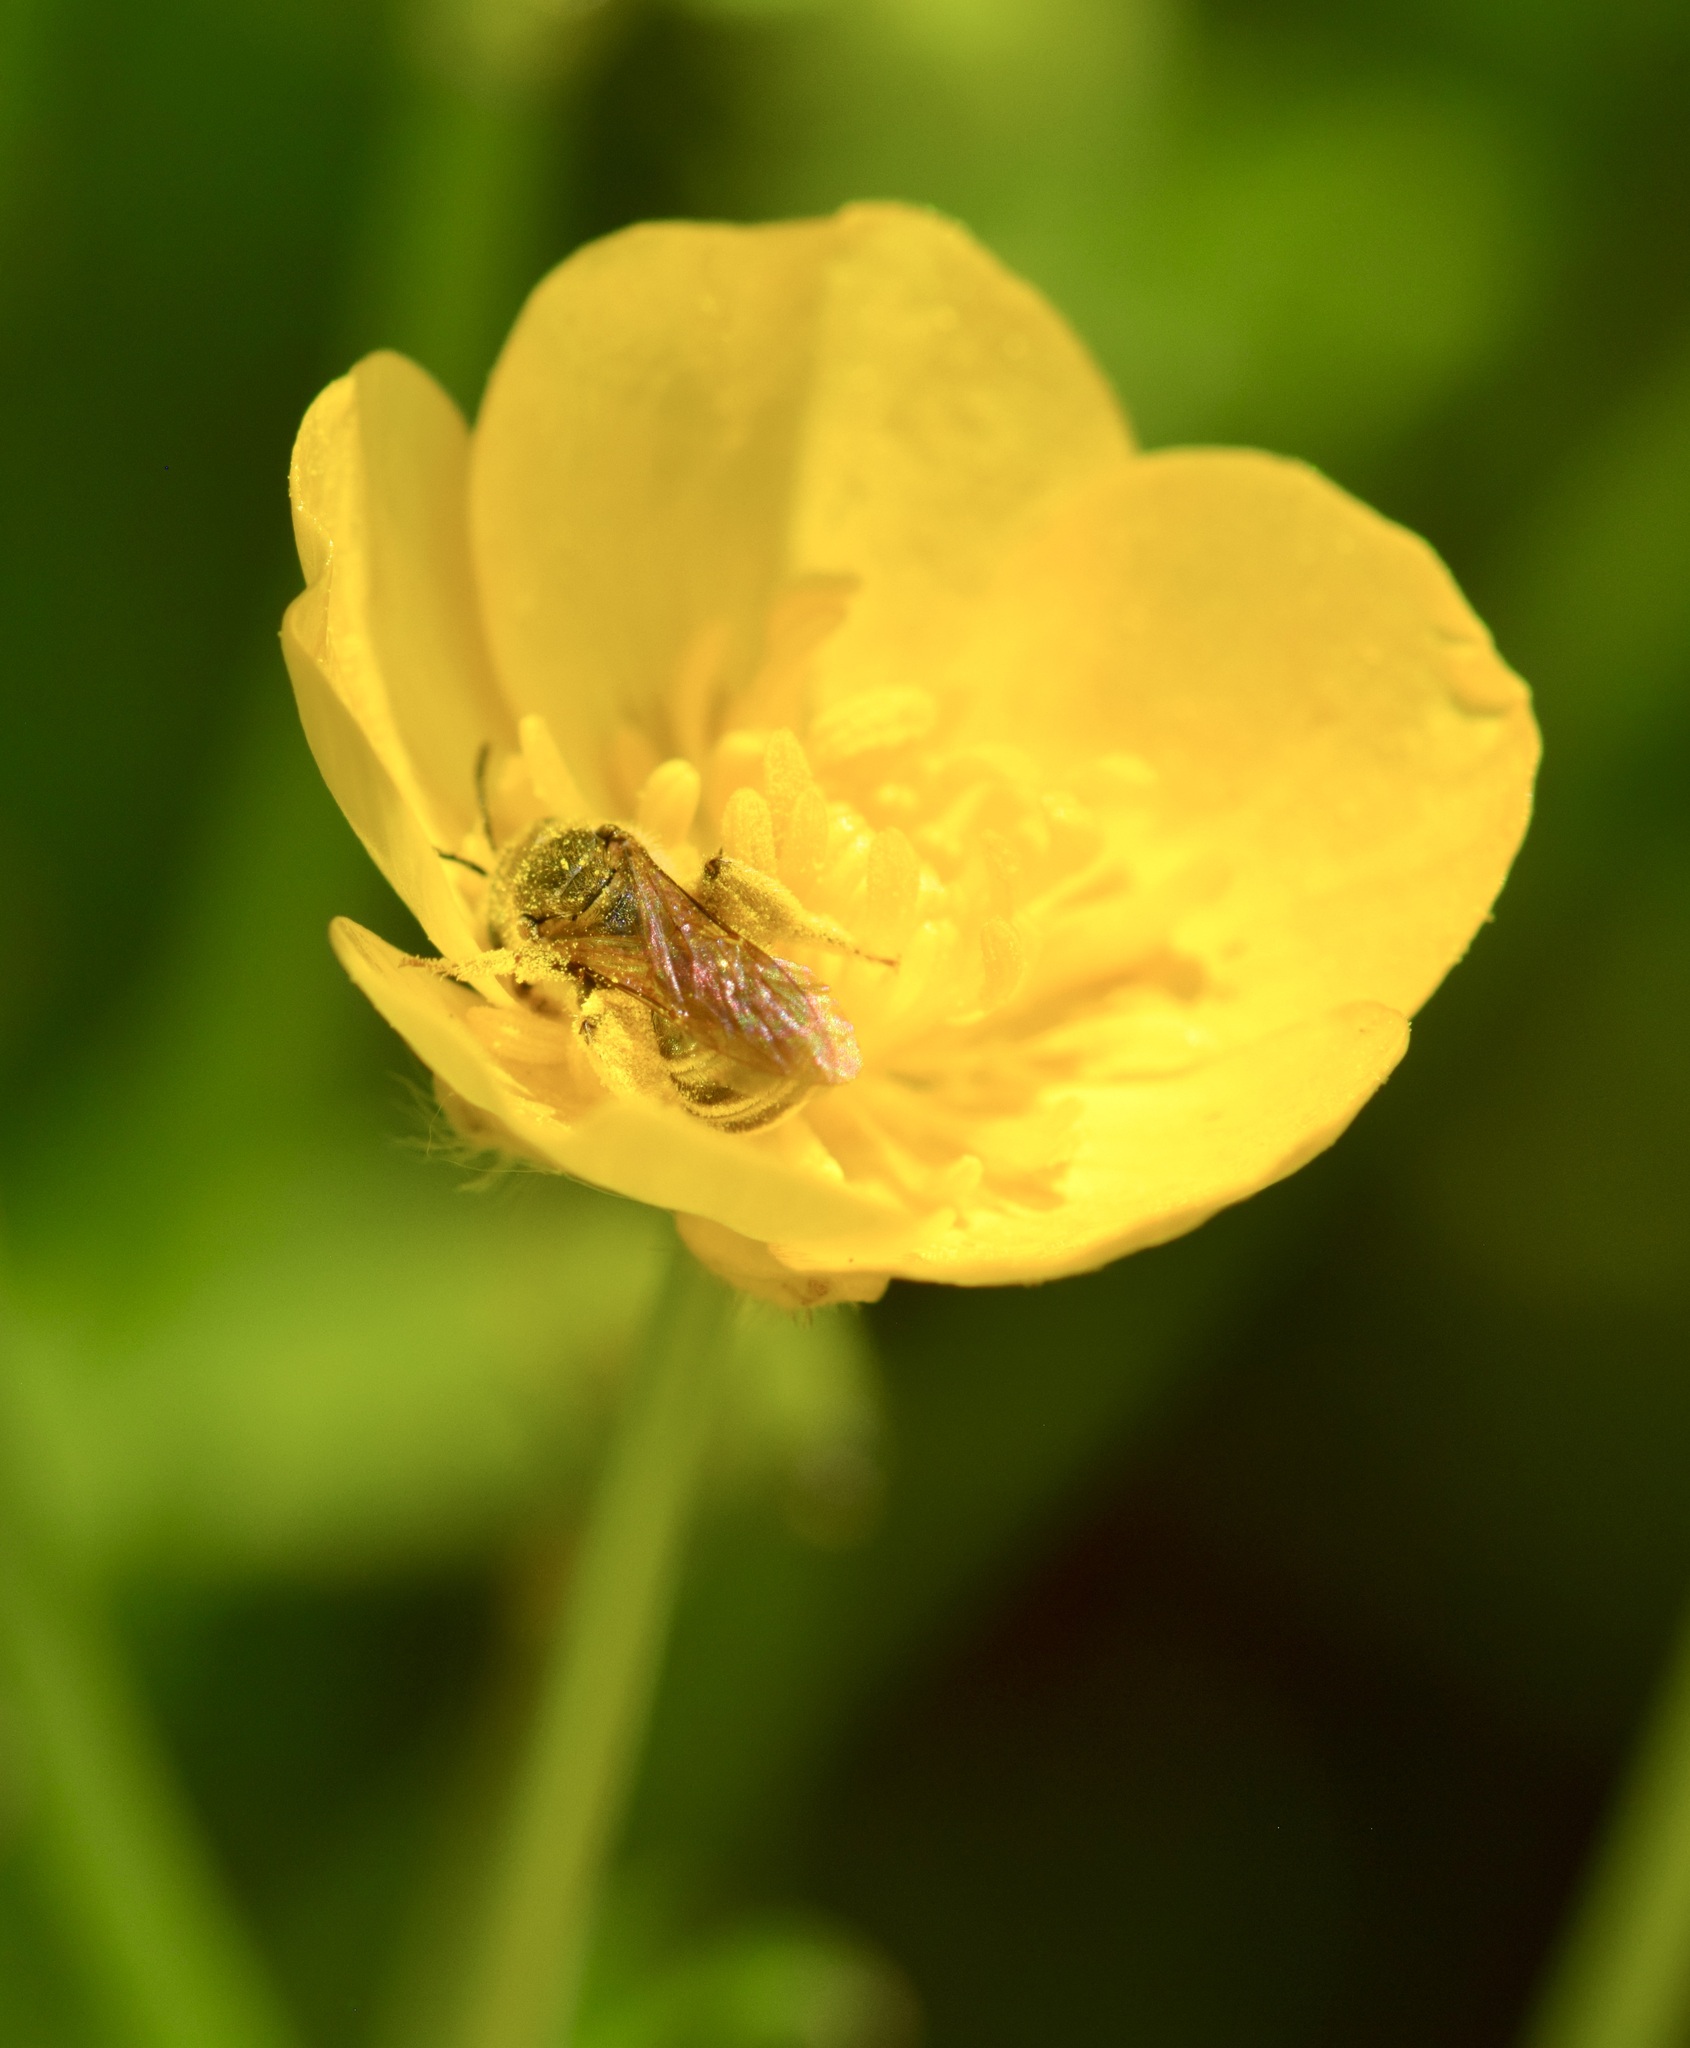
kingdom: Animalia
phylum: Arthropoda
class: Insecta
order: Hymenoptera
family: Halictidae
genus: Halictus
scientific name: Halictus confusus
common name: Southern bronze furrow bee
